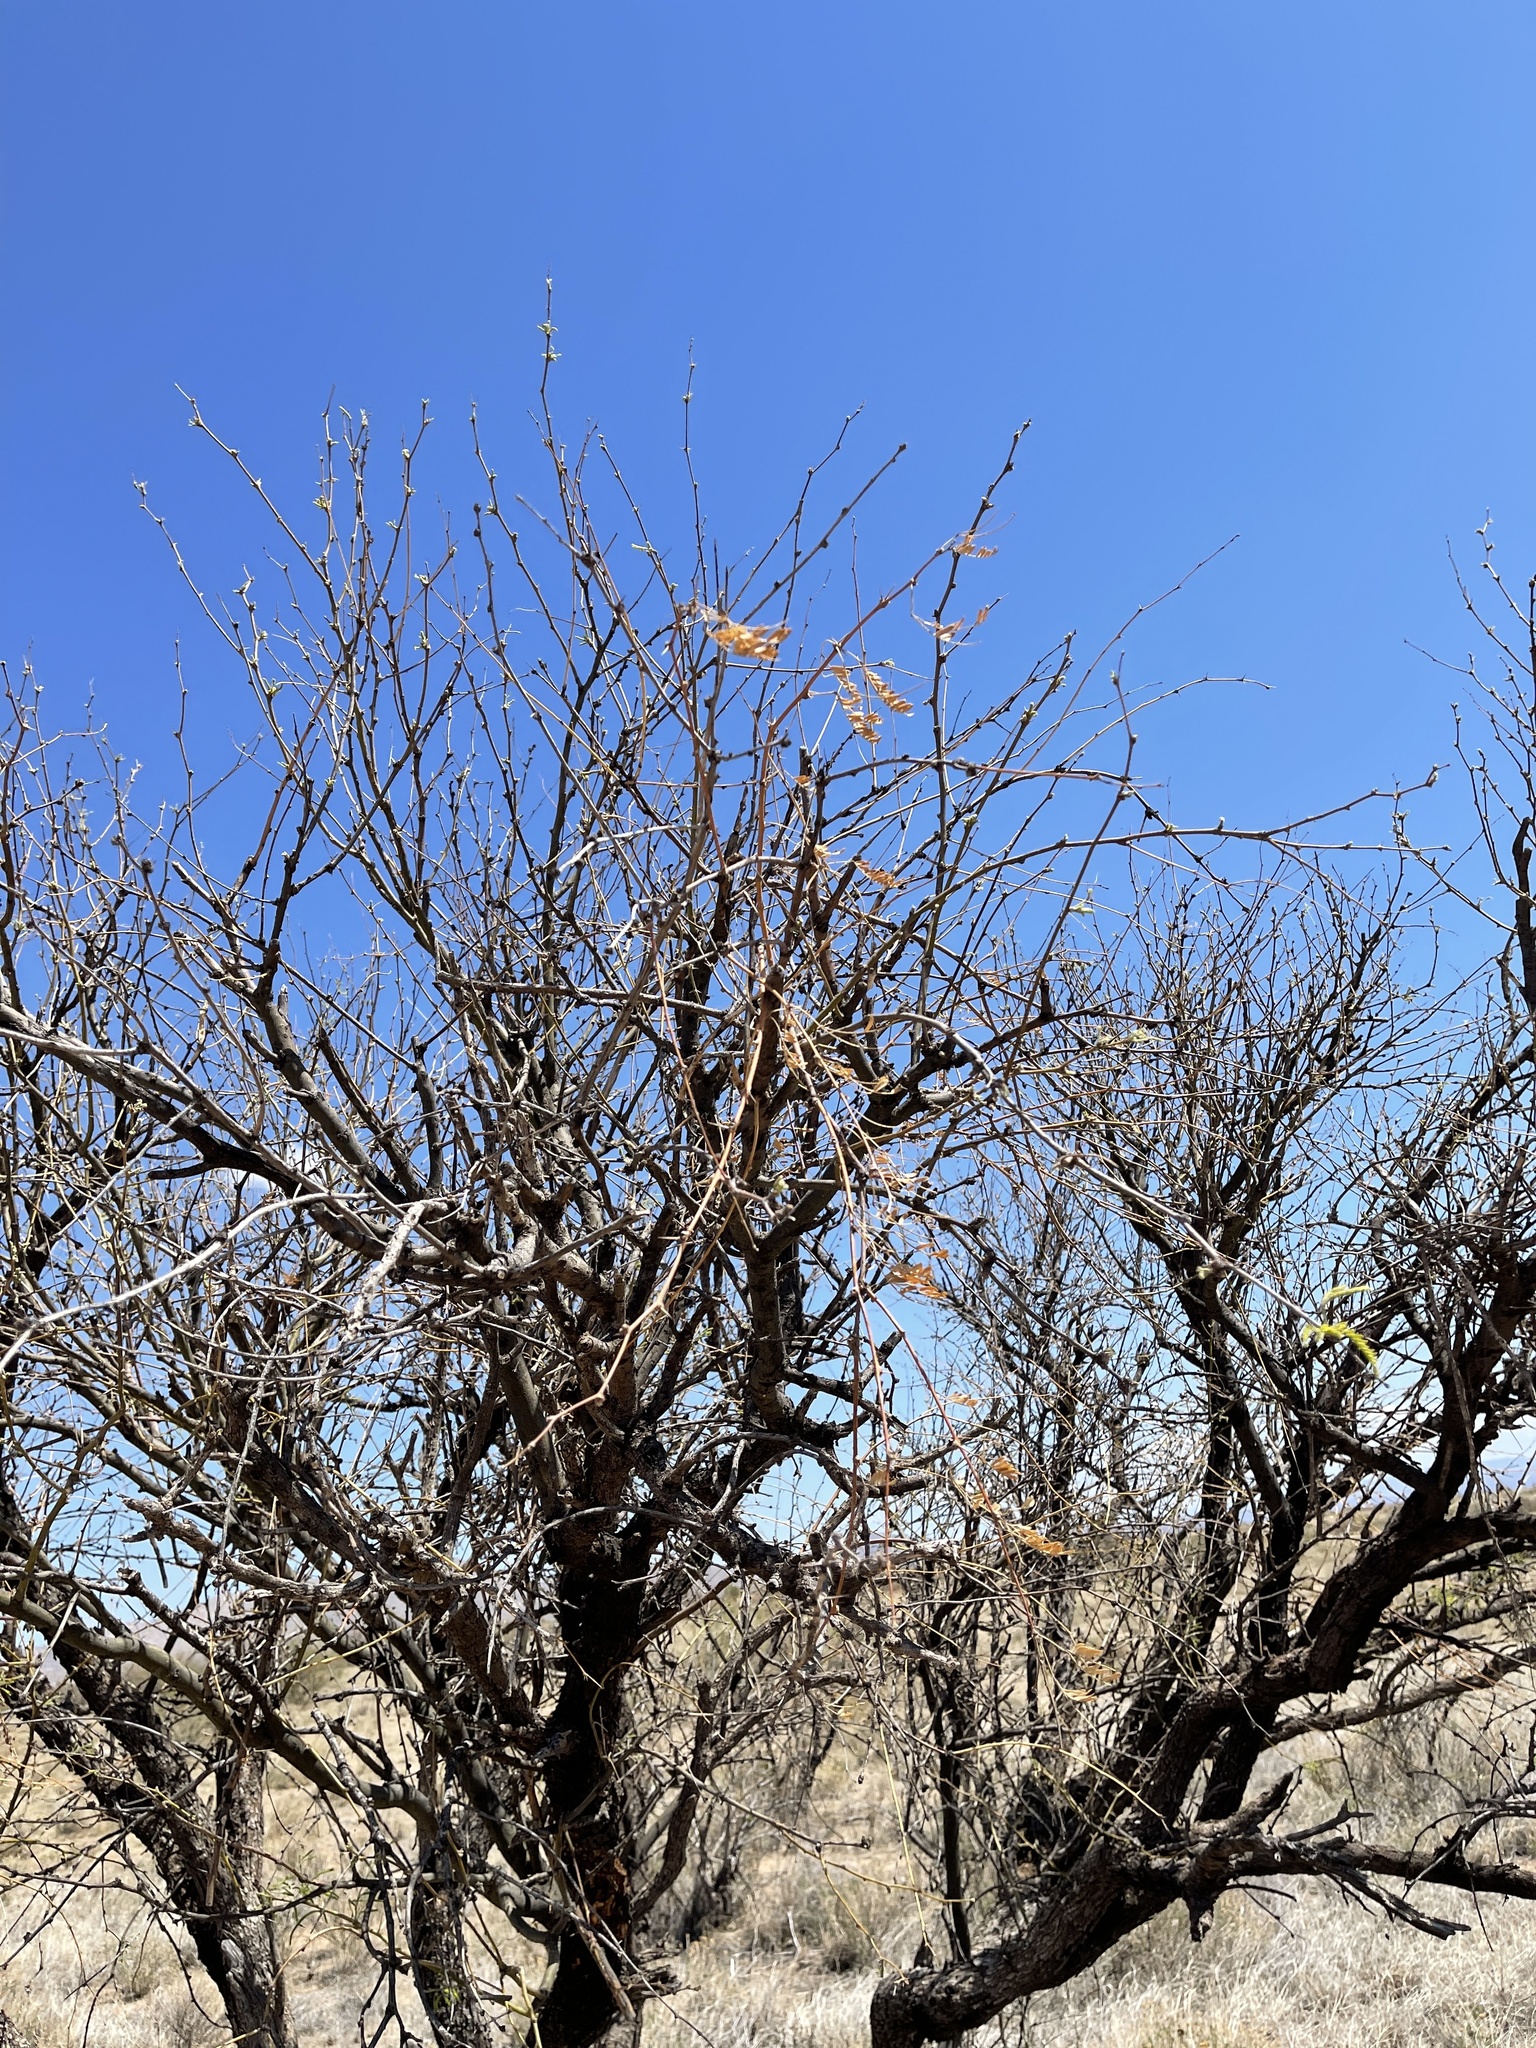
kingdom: Plantae
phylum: Tracheophyta
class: Magnoliopsida
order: Fabales
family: Fabaceae
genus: Prosopis
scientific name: Prosopis velutina
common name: Velvet mesquite
